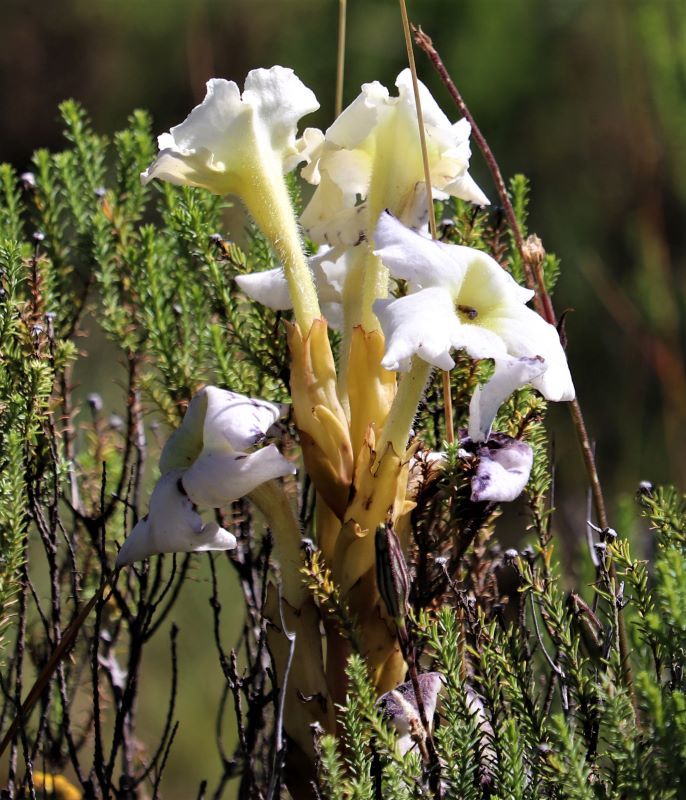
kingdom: Plantae
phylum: Tracheophyta
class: Magnoliopsida
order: Lamiales
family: Orobanchaceae
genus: Harveya
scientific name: Harveya speciosa
